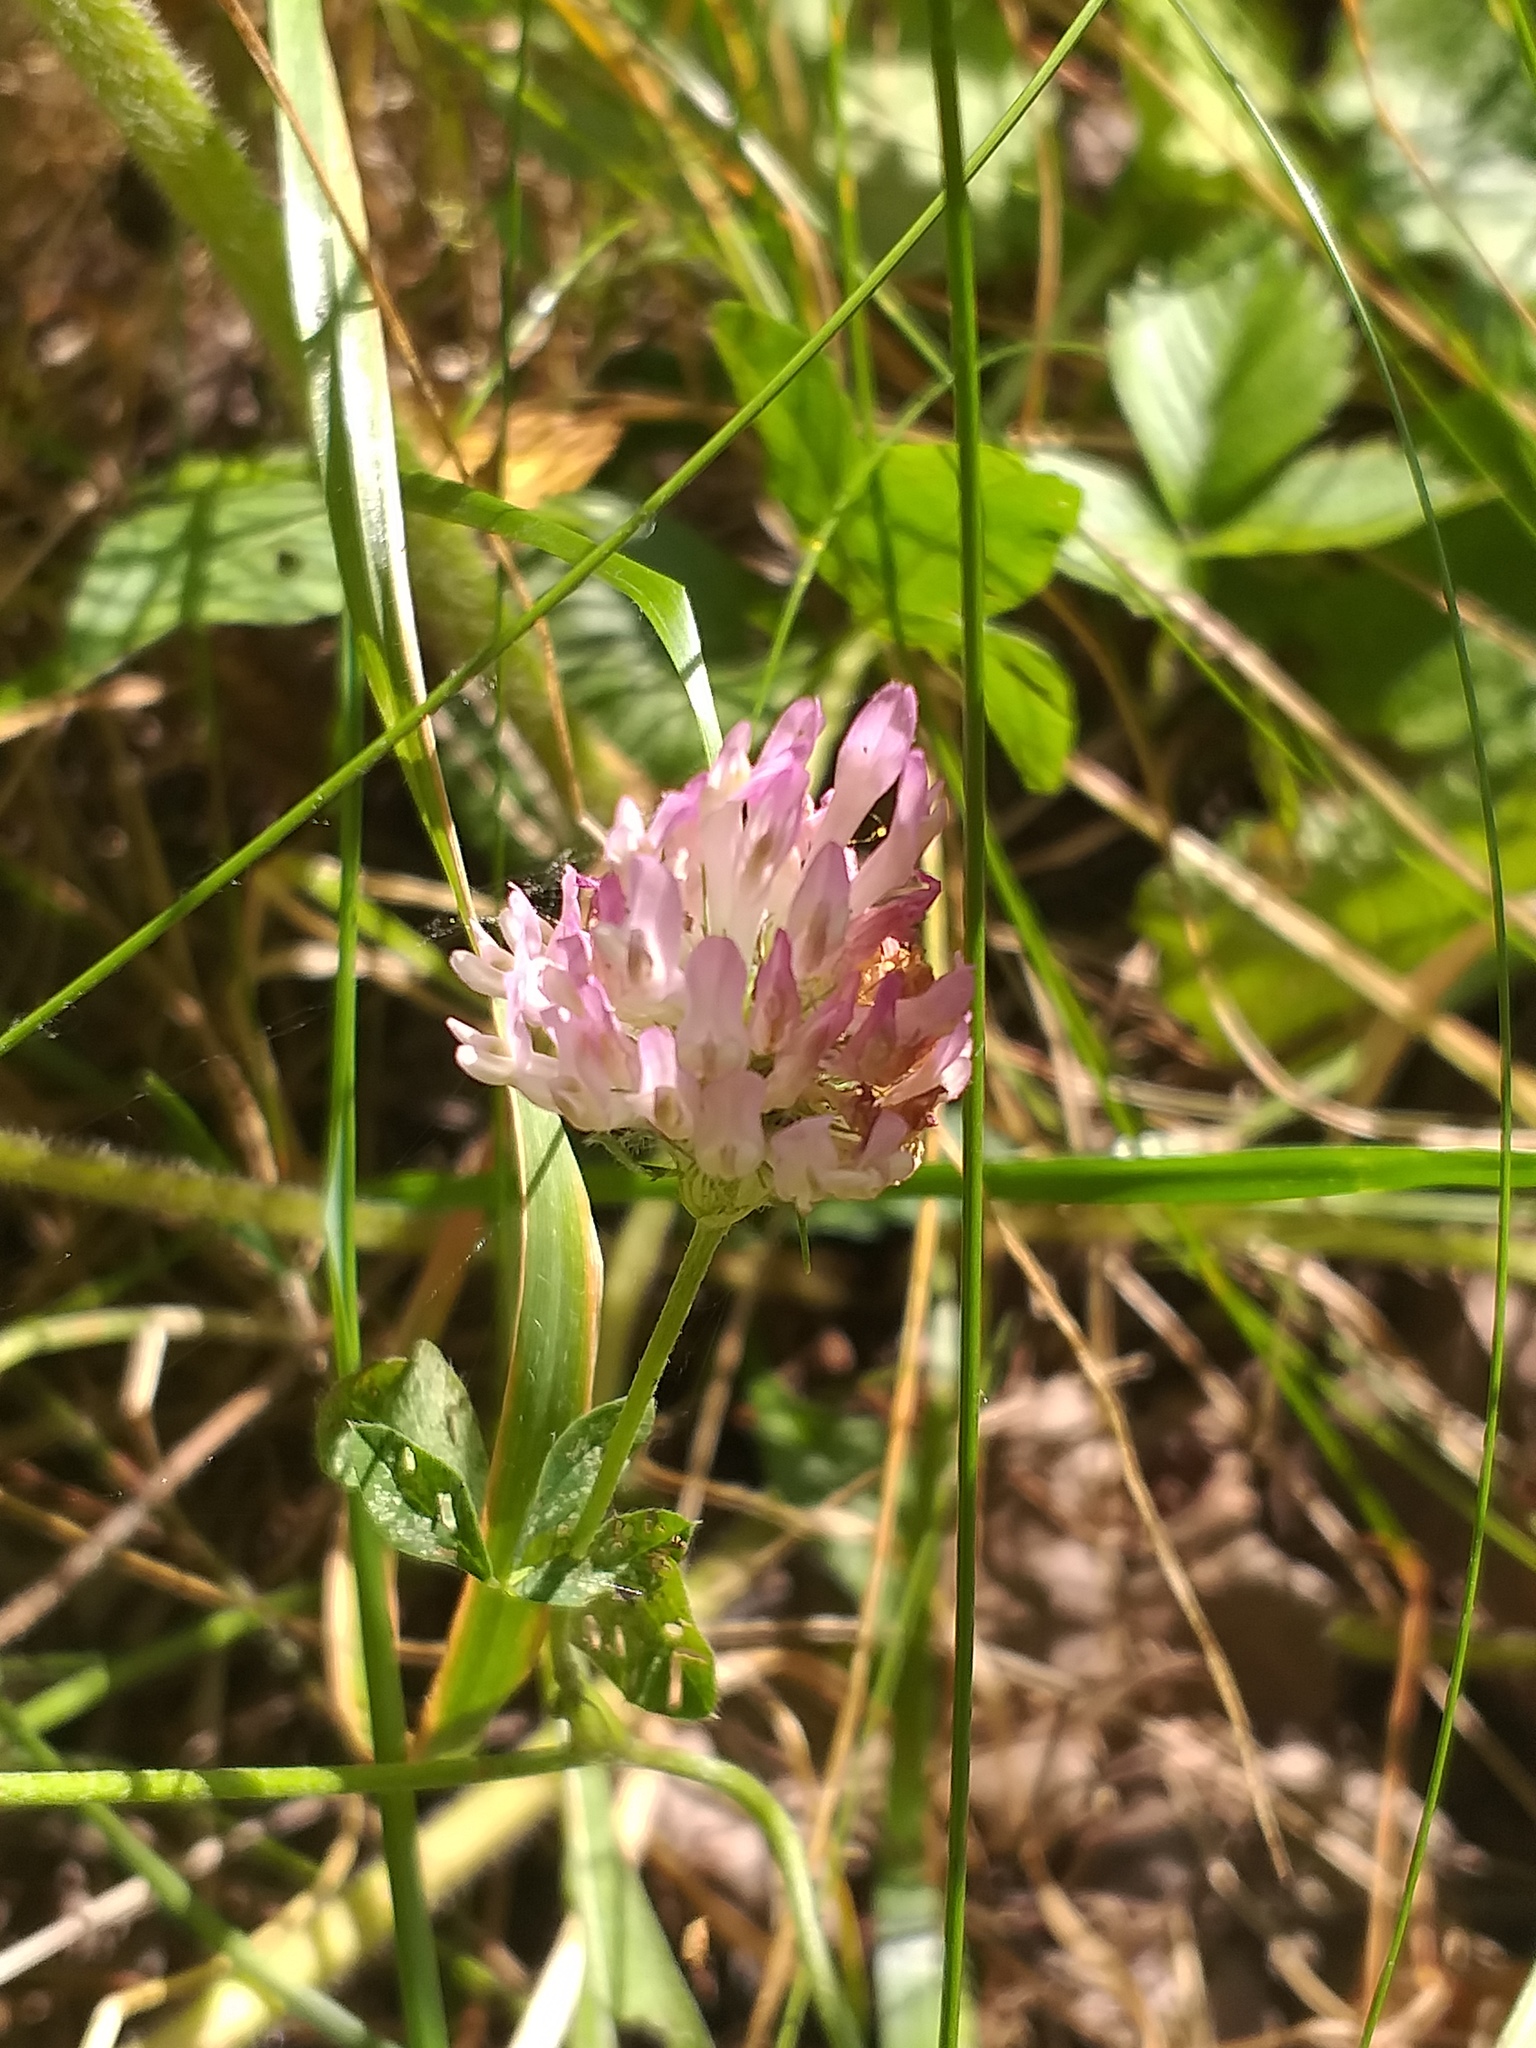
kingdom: Plantae
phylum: Tracheophyta
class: Magnoliopsida
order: Fabales
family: Fabaceae
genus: Trifolium
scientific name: Trifolium pratense
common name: Red clover
